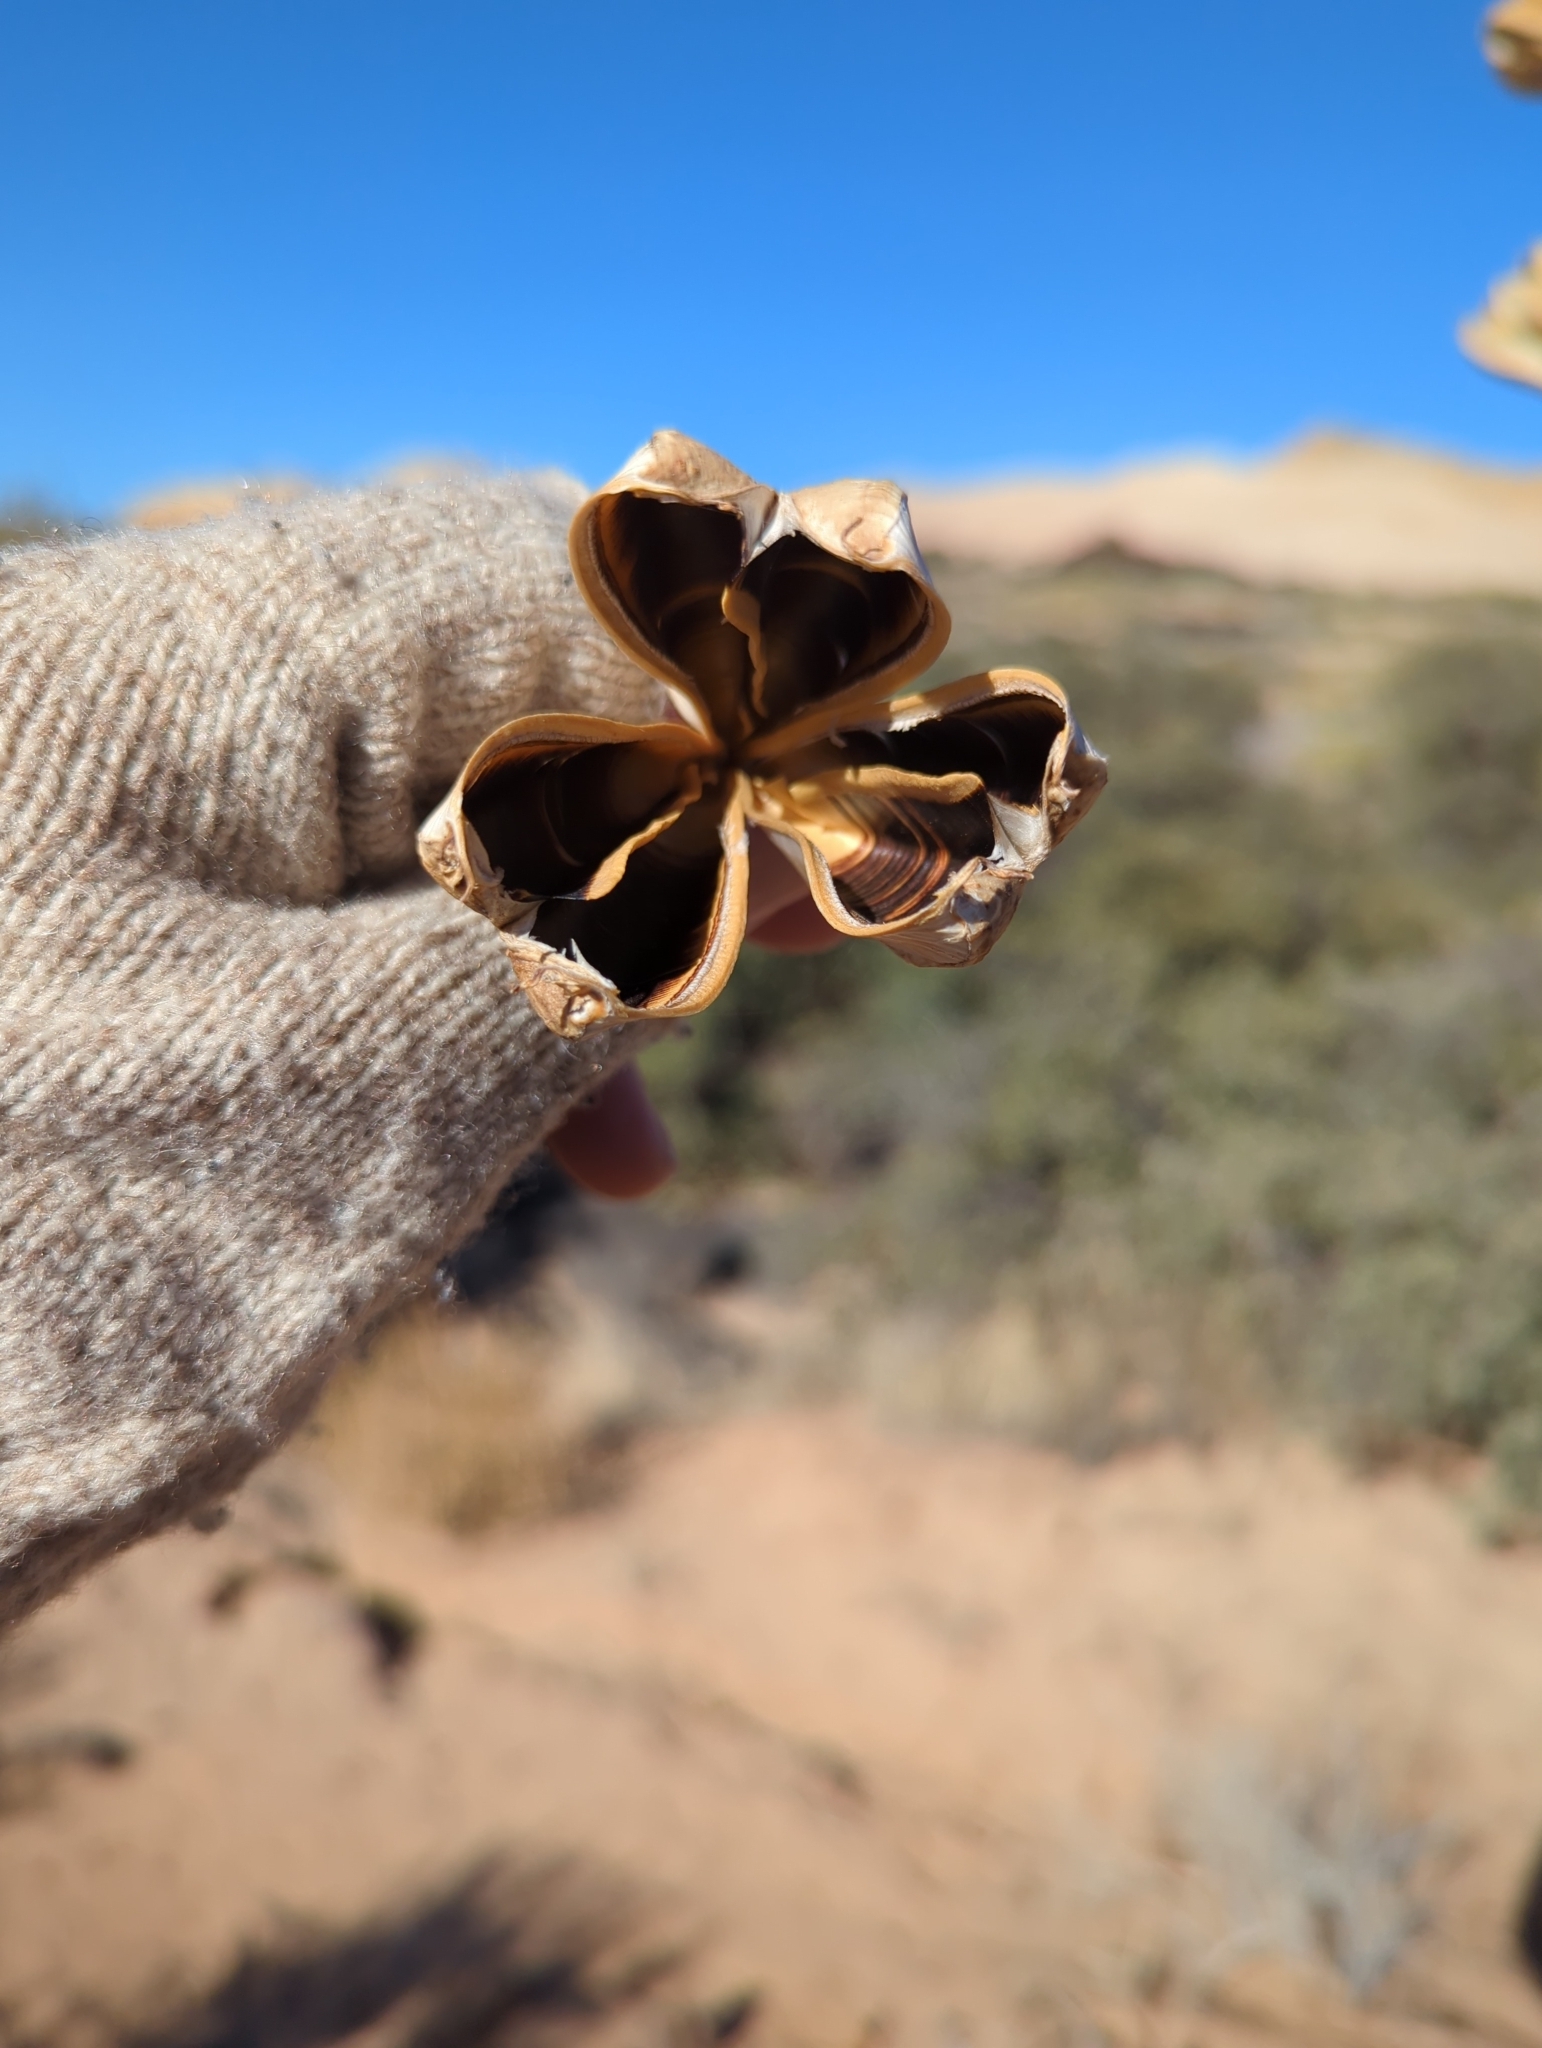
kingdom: Plantae
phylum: Tracheophyta
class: Liliopsida
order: Asparagales
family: Asparagaceae
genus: Yucca
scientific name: Yucca utahensis
